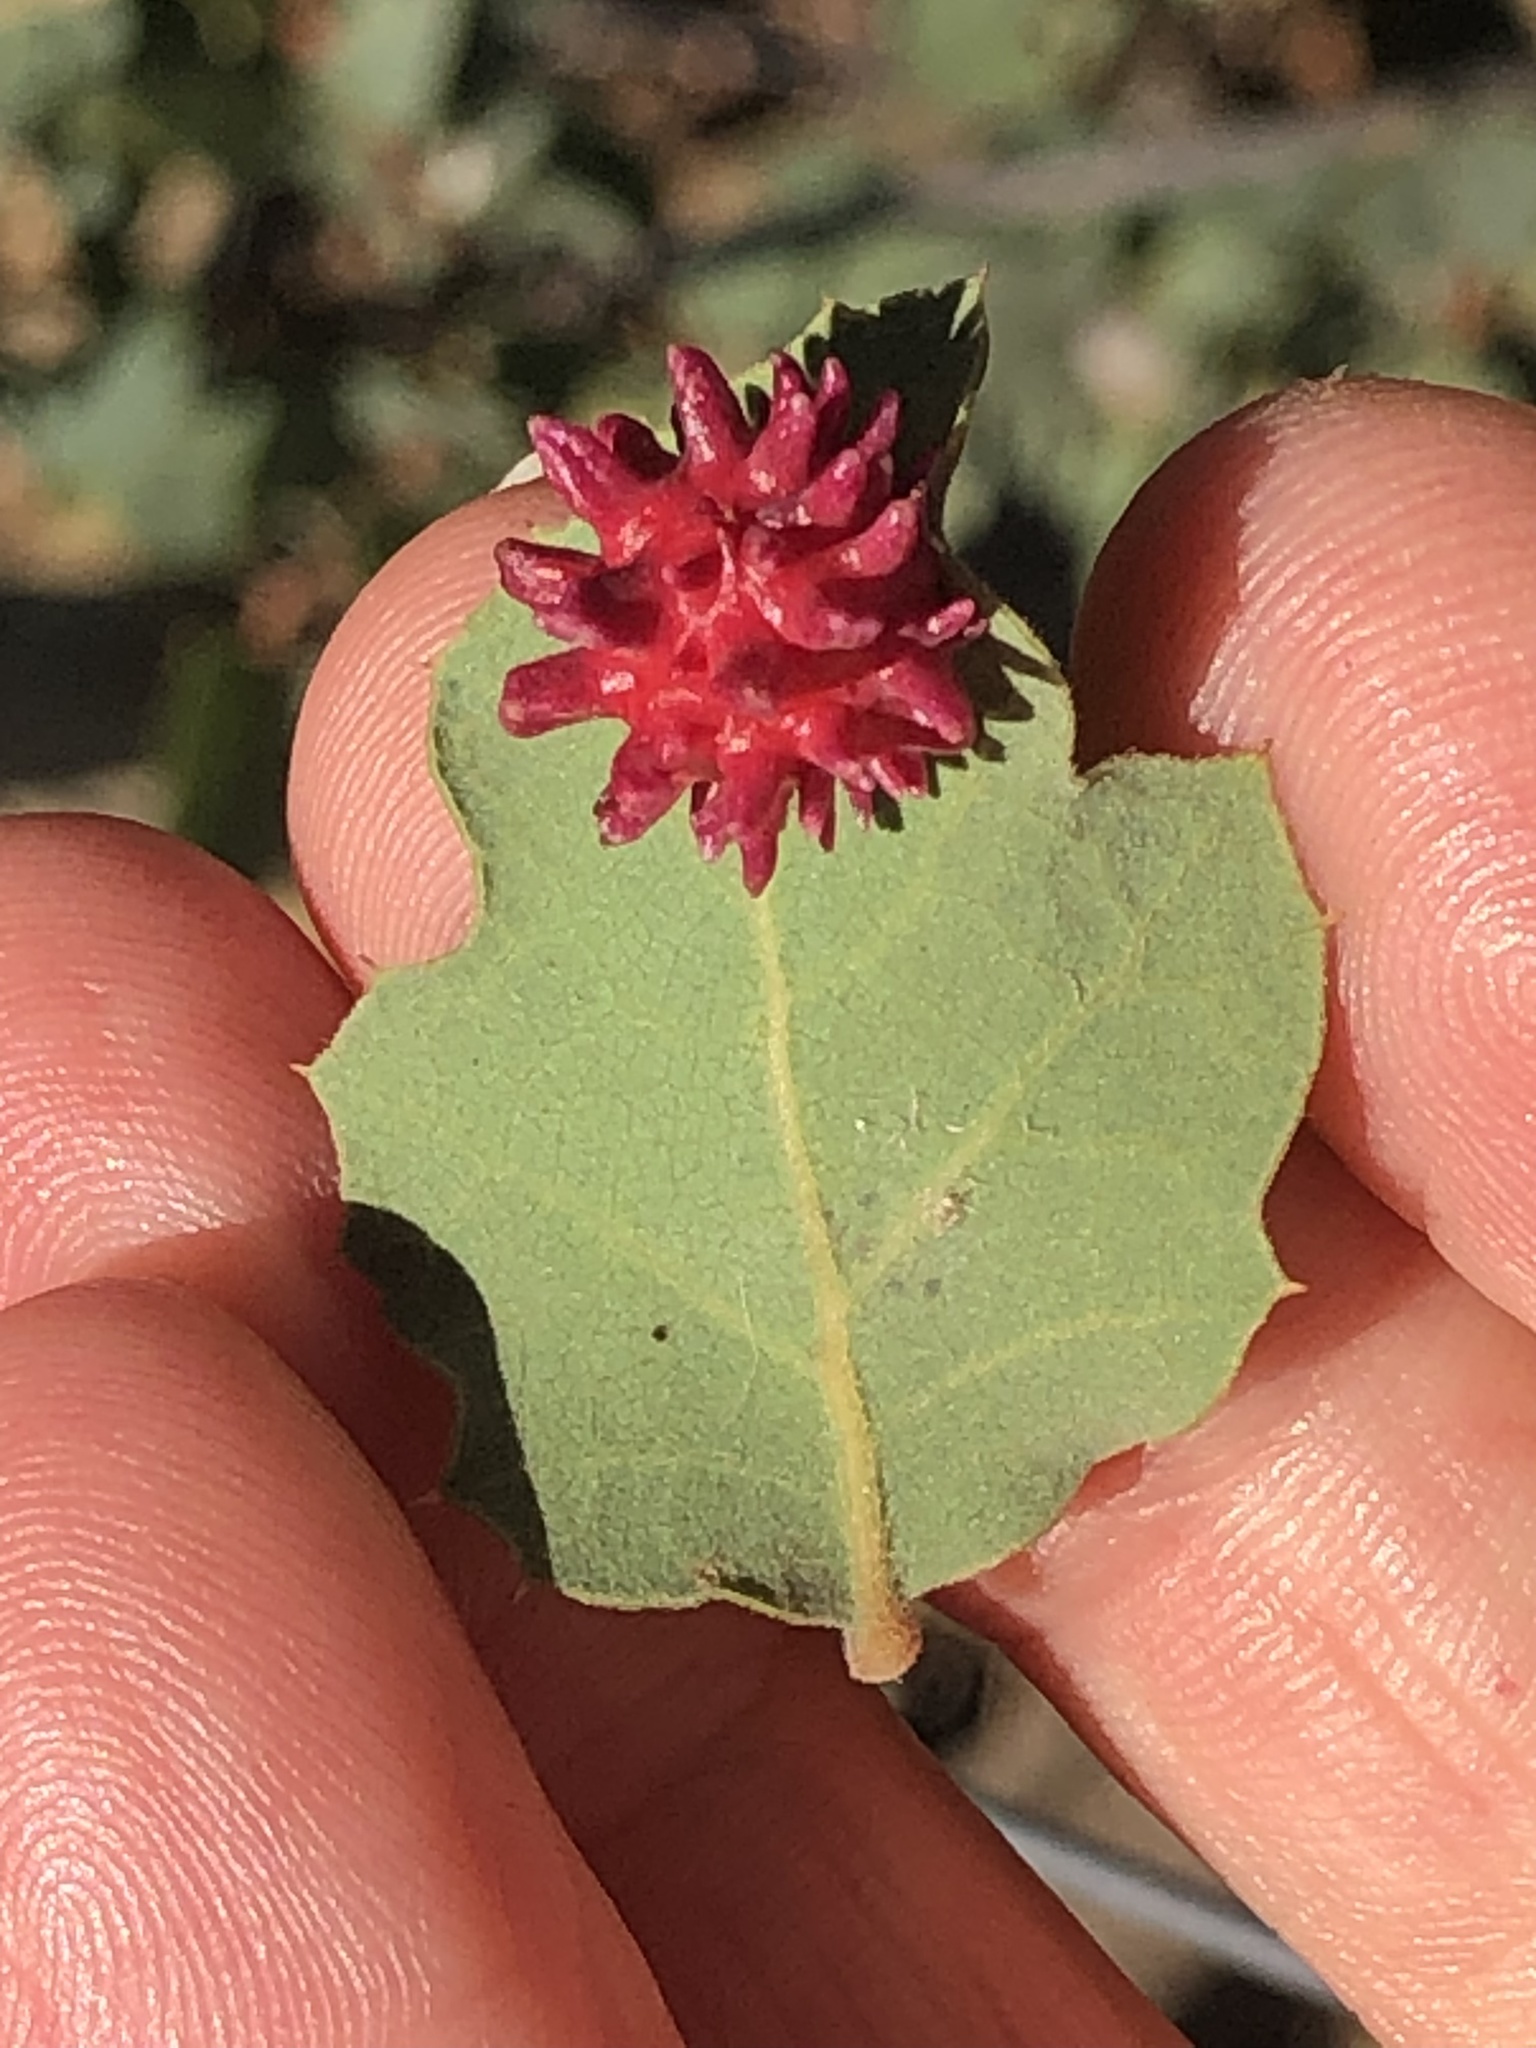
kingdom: Animalia
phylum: Arthropoda
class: Insecta
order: Hymenoptera
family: Cynipidae
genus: Cynips
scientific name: Cynips
